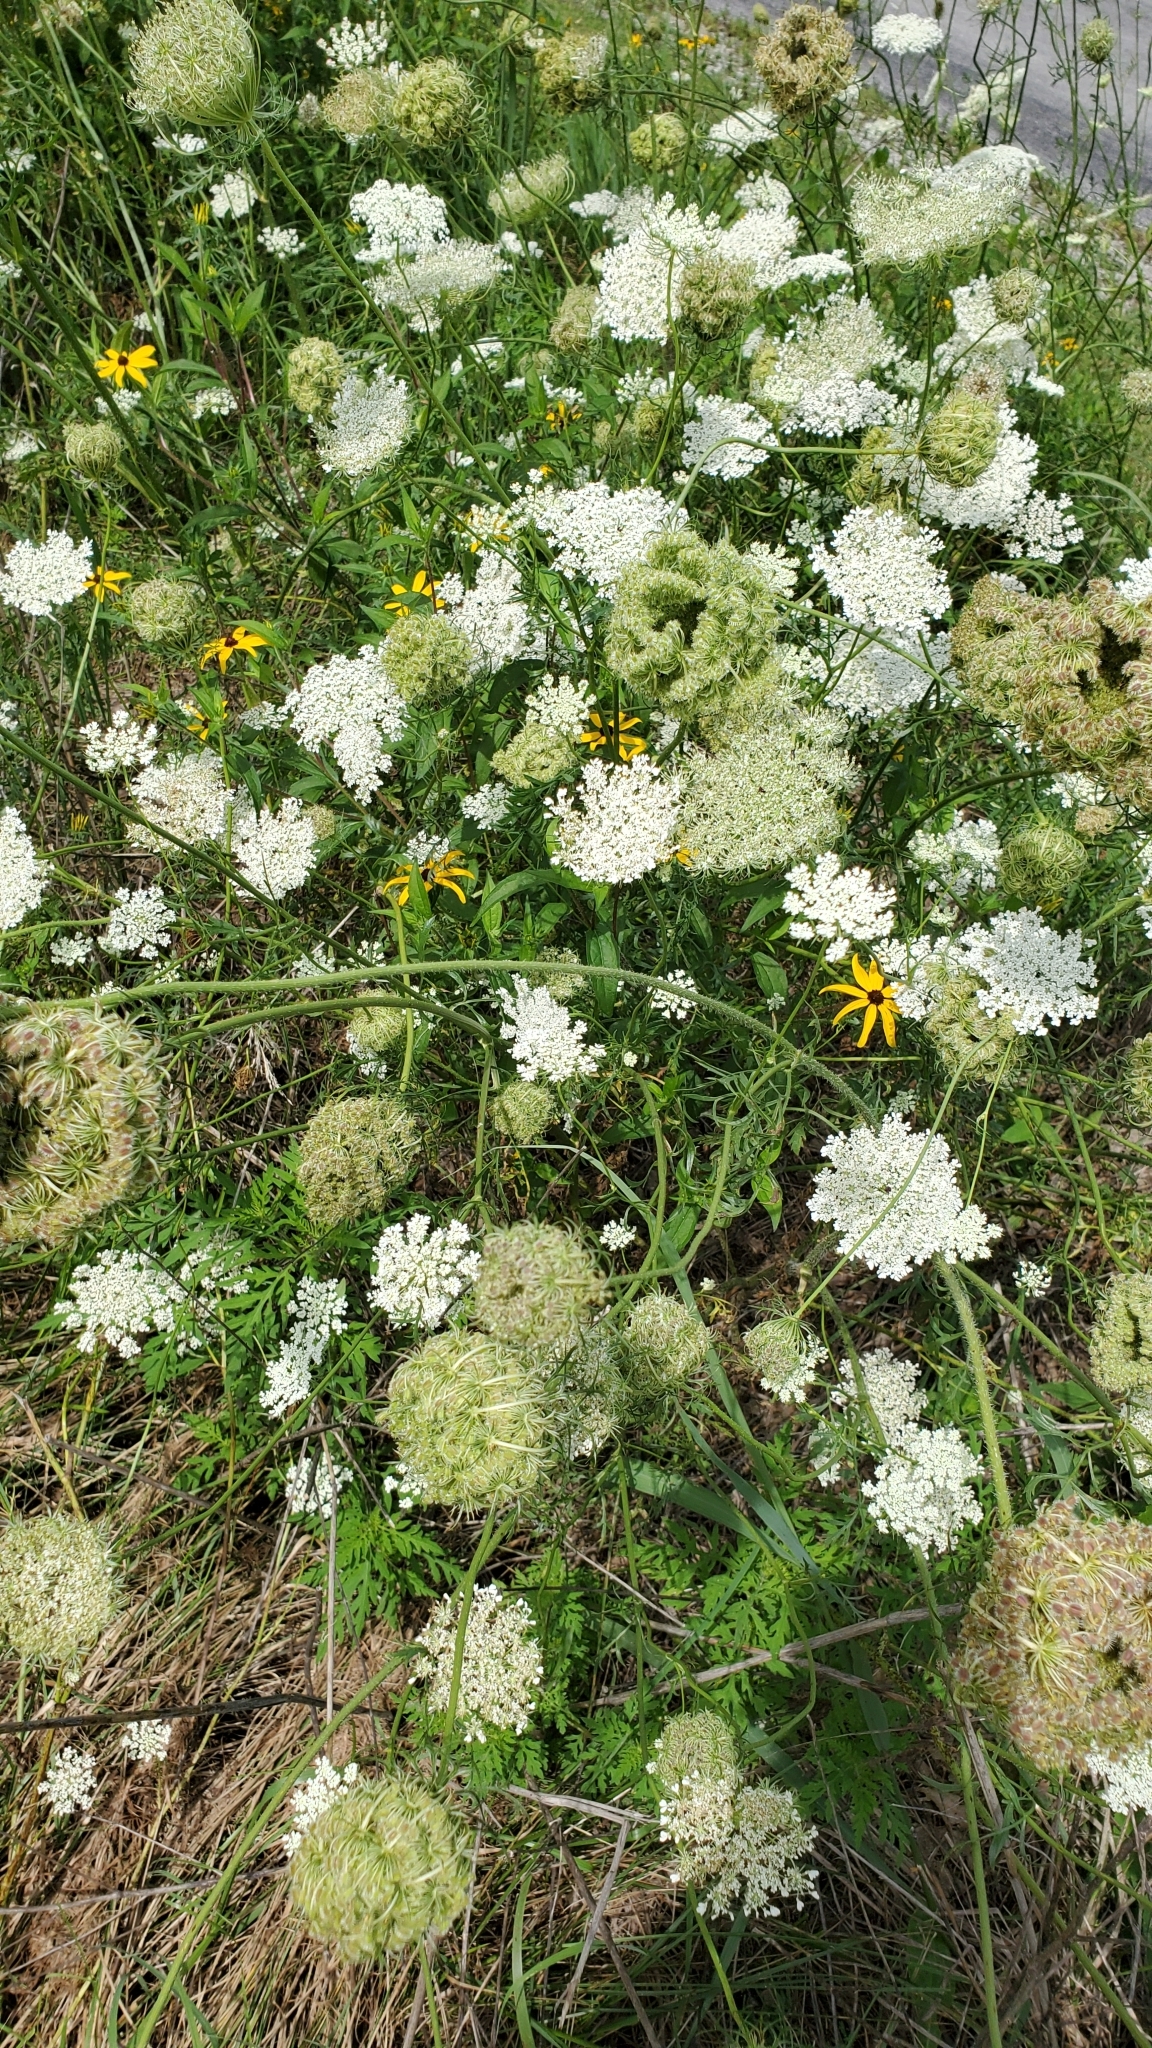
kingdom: Plantae
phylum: Tracheophyta
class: Magnoliopsida
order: Apiales
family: Apiaceae
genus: Daucus
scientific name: Daucus carota
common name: Wild carrot
